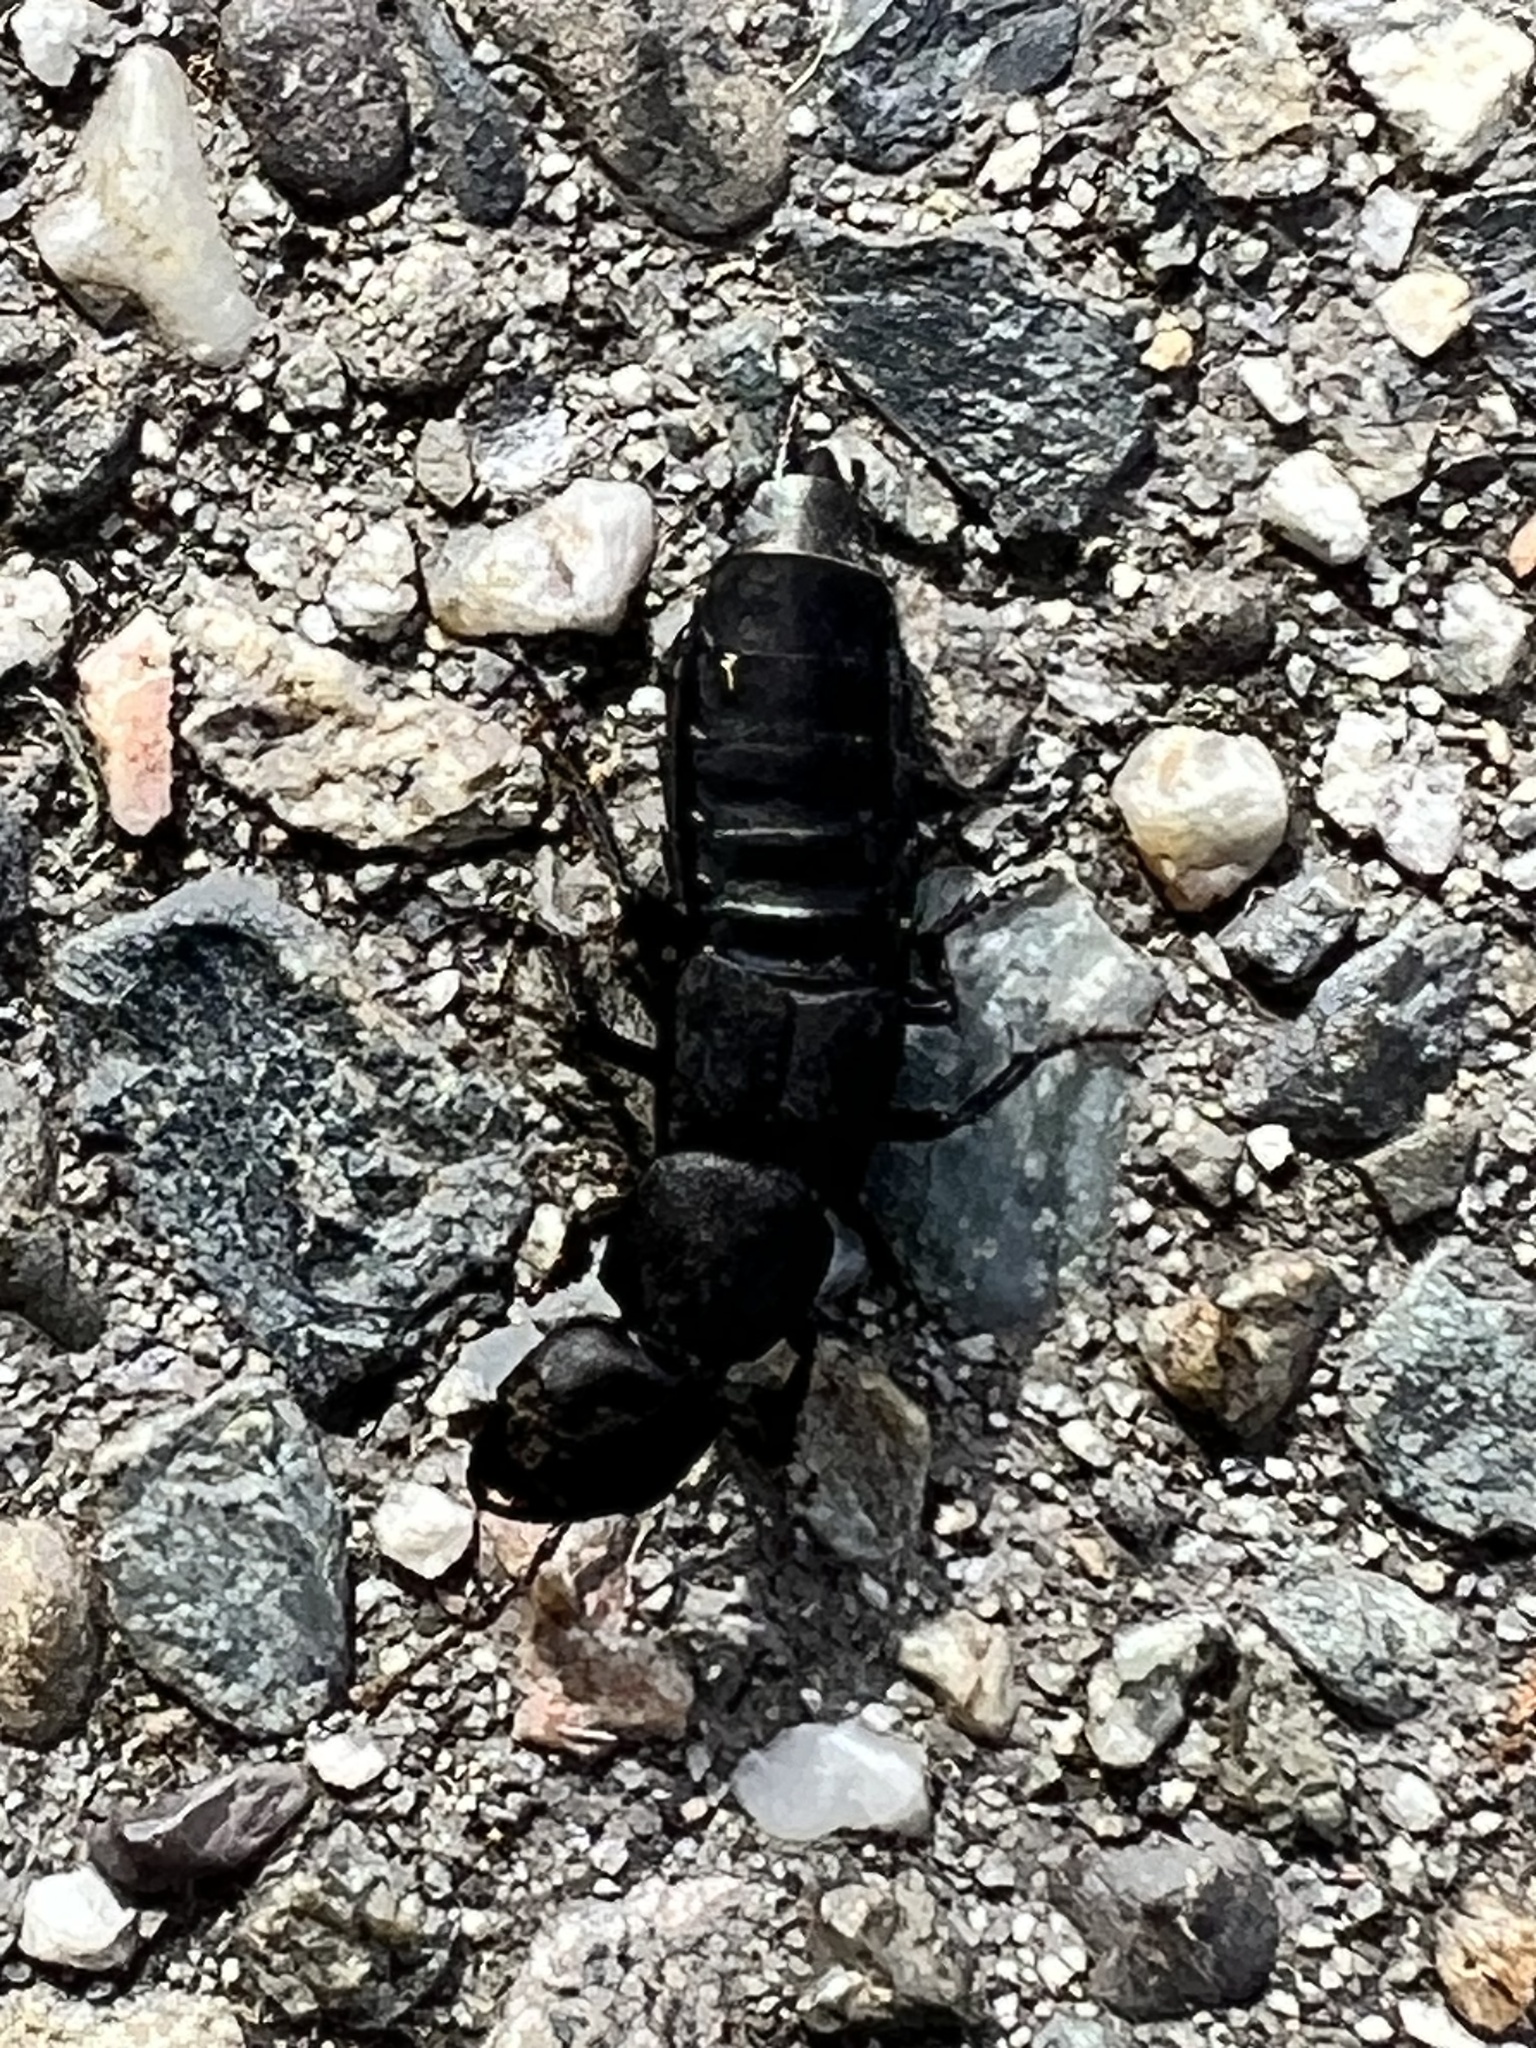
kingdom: Animalia
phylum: Arthropoda
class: Insecta
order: Coleoptera
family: Staphylinidae
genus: Ocypus
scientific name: Ocypus olens
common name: Devil's coach-horse
